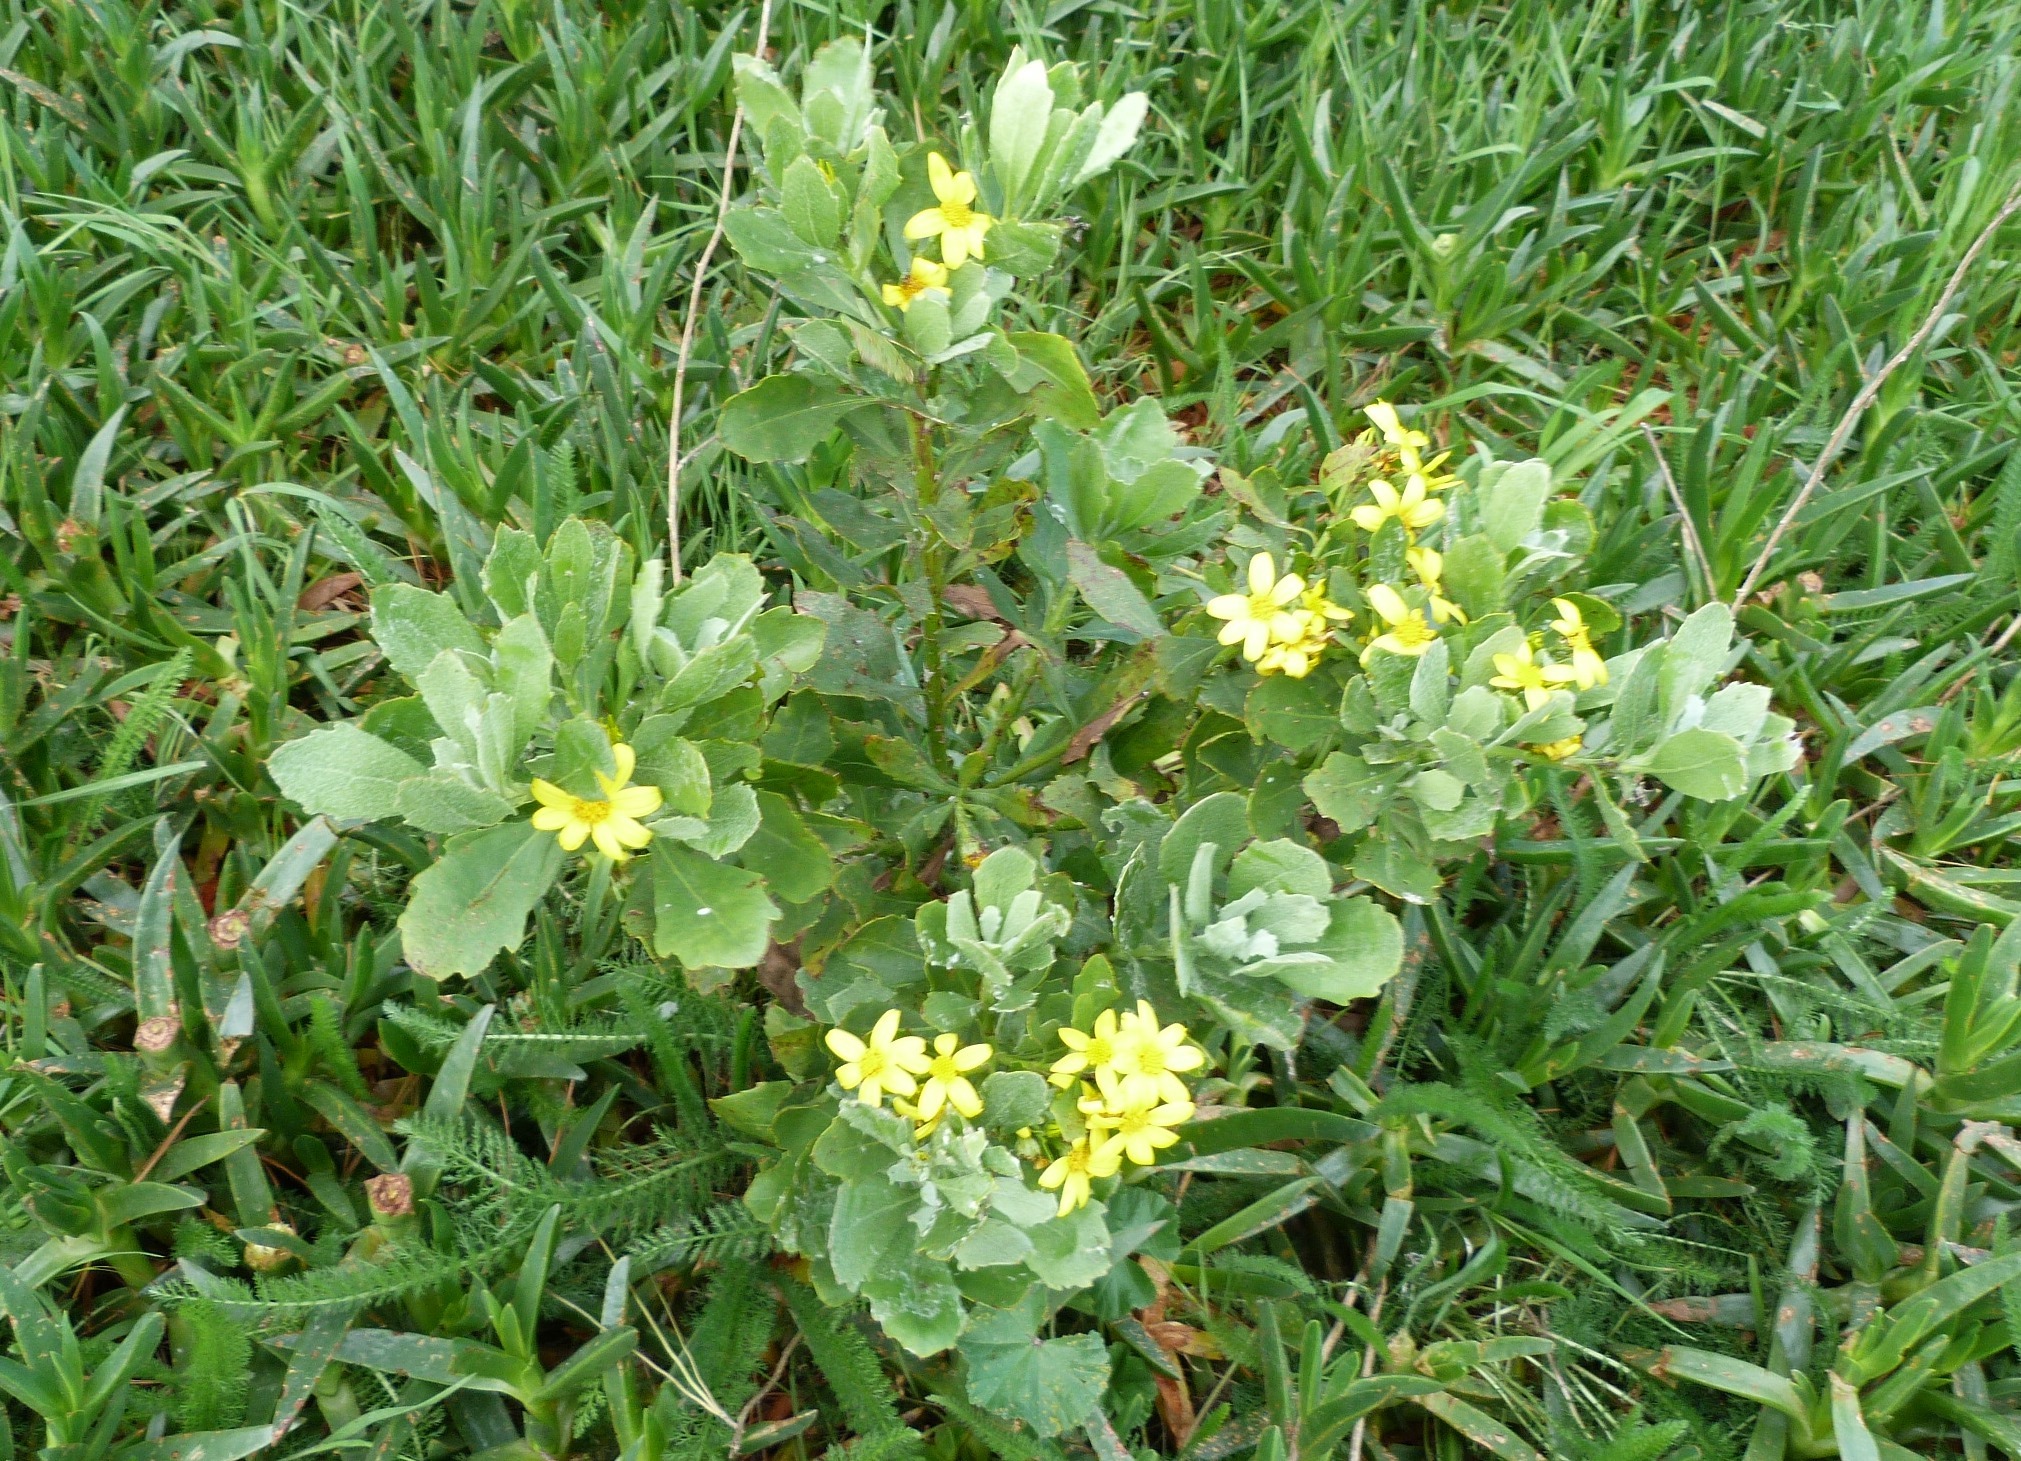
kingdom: Plantae
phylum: Tracheophyta
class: Magnoliopsida
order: Asterales
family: Asteraceae
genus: Osteospermum
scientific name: Osteospermum moniliferum
